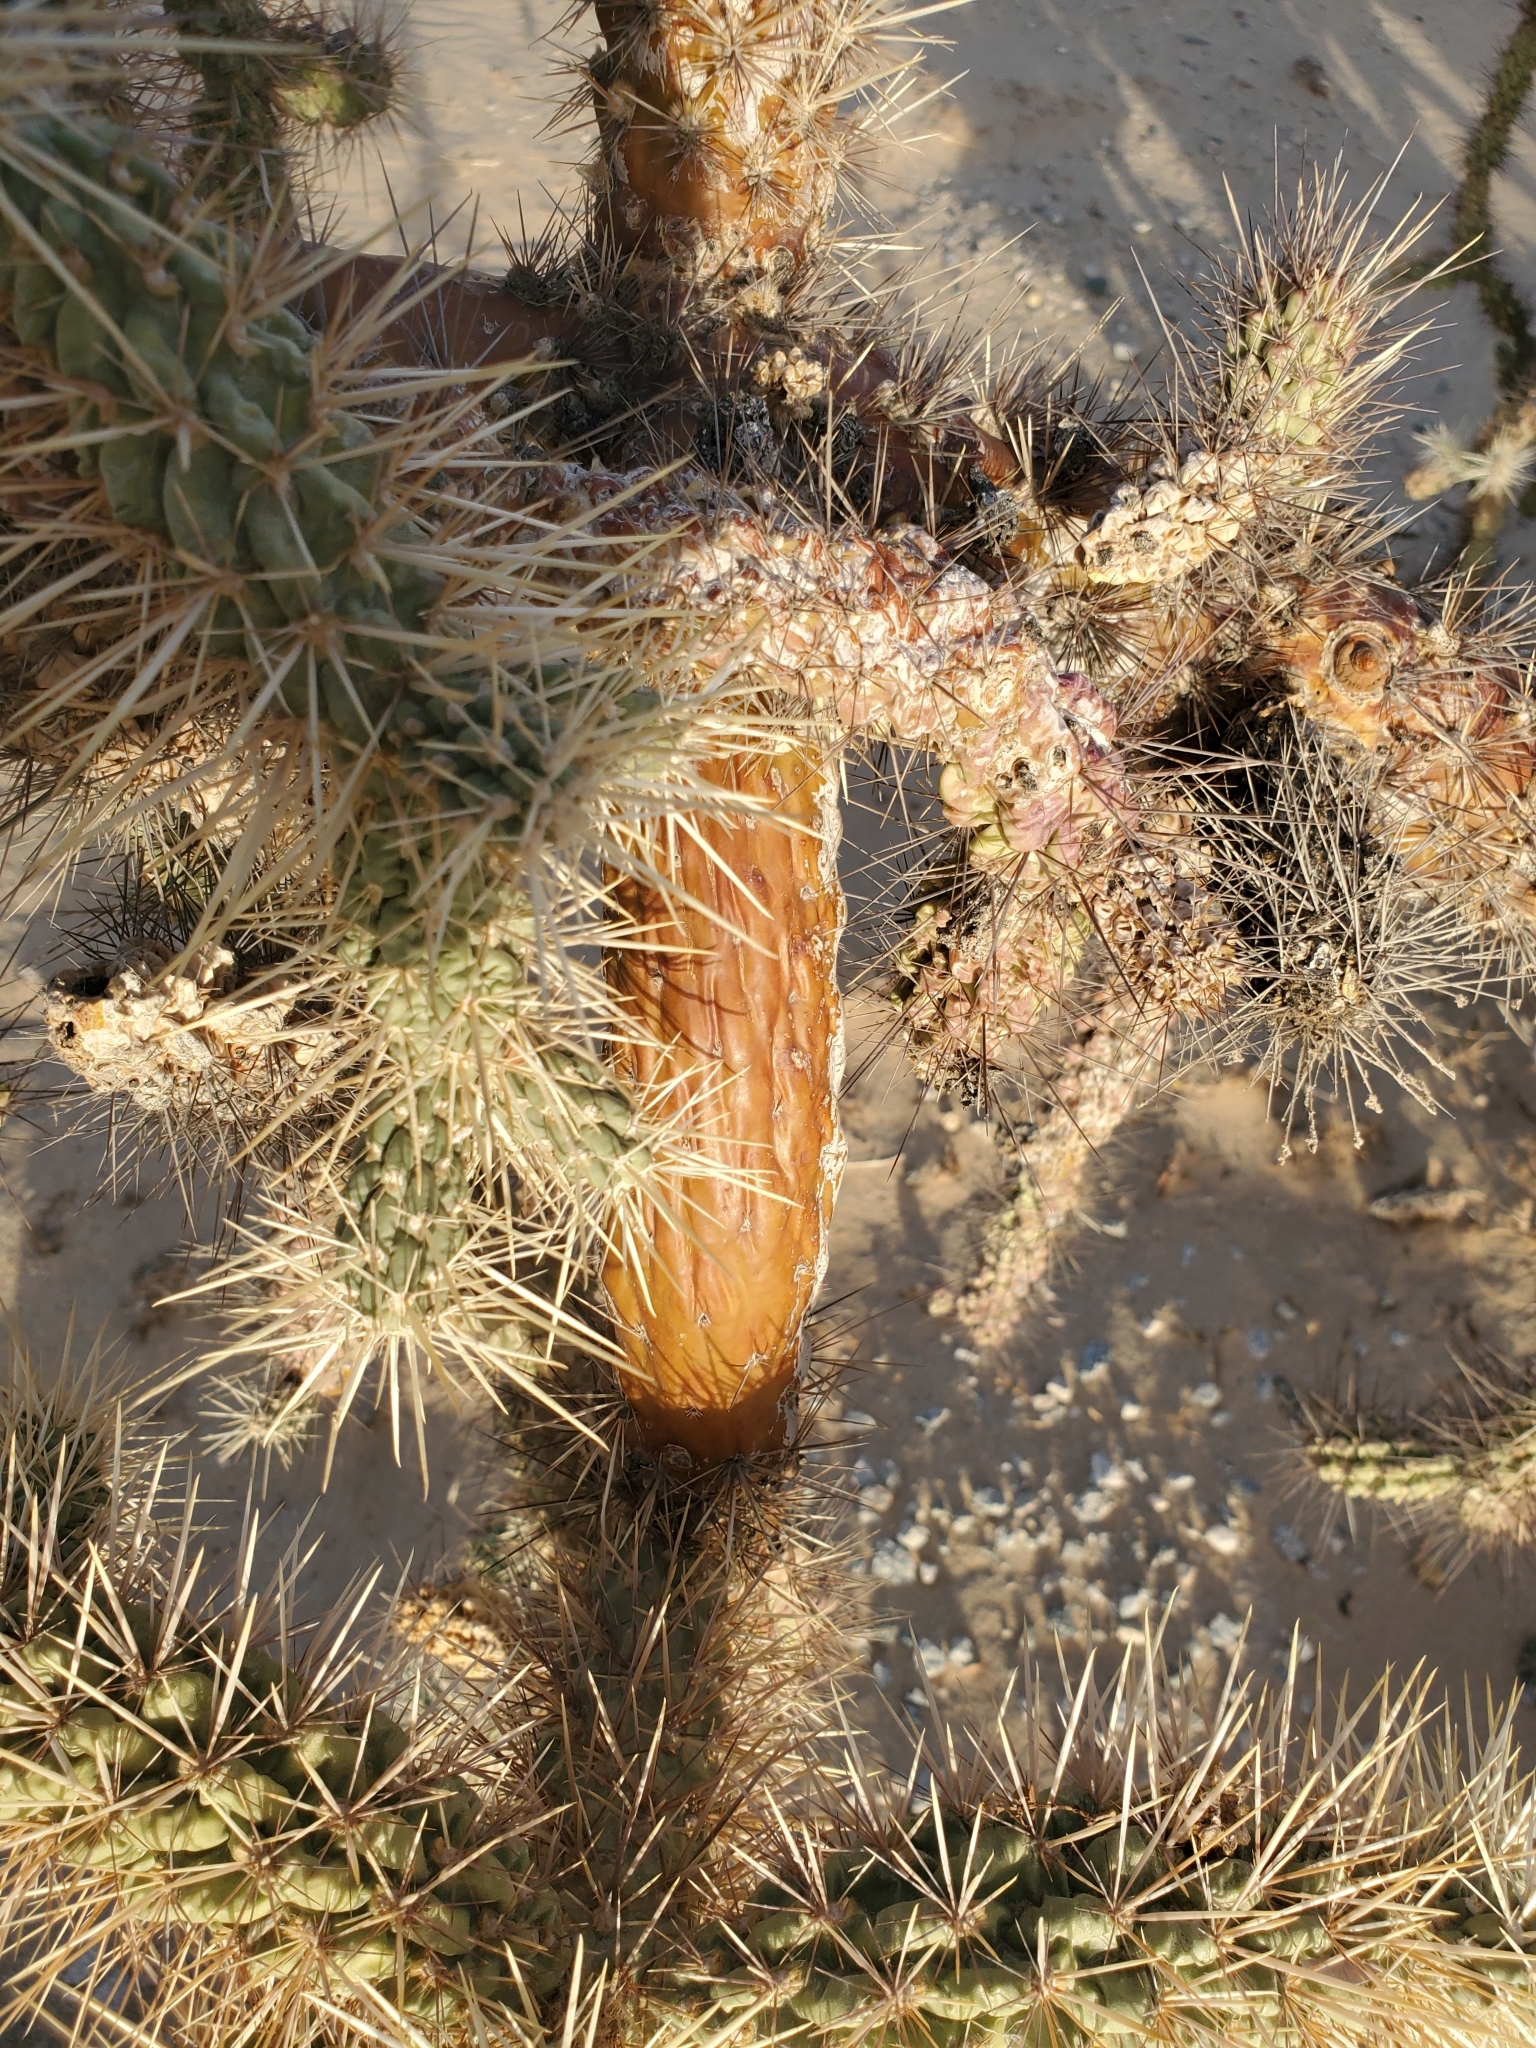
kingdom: Plantae
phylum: Tracheophyta
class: Magnoliopsida
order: Caryophyllales
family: Cactaceae
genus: Cylindropuntia
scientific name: Cylindropuntia munzii
